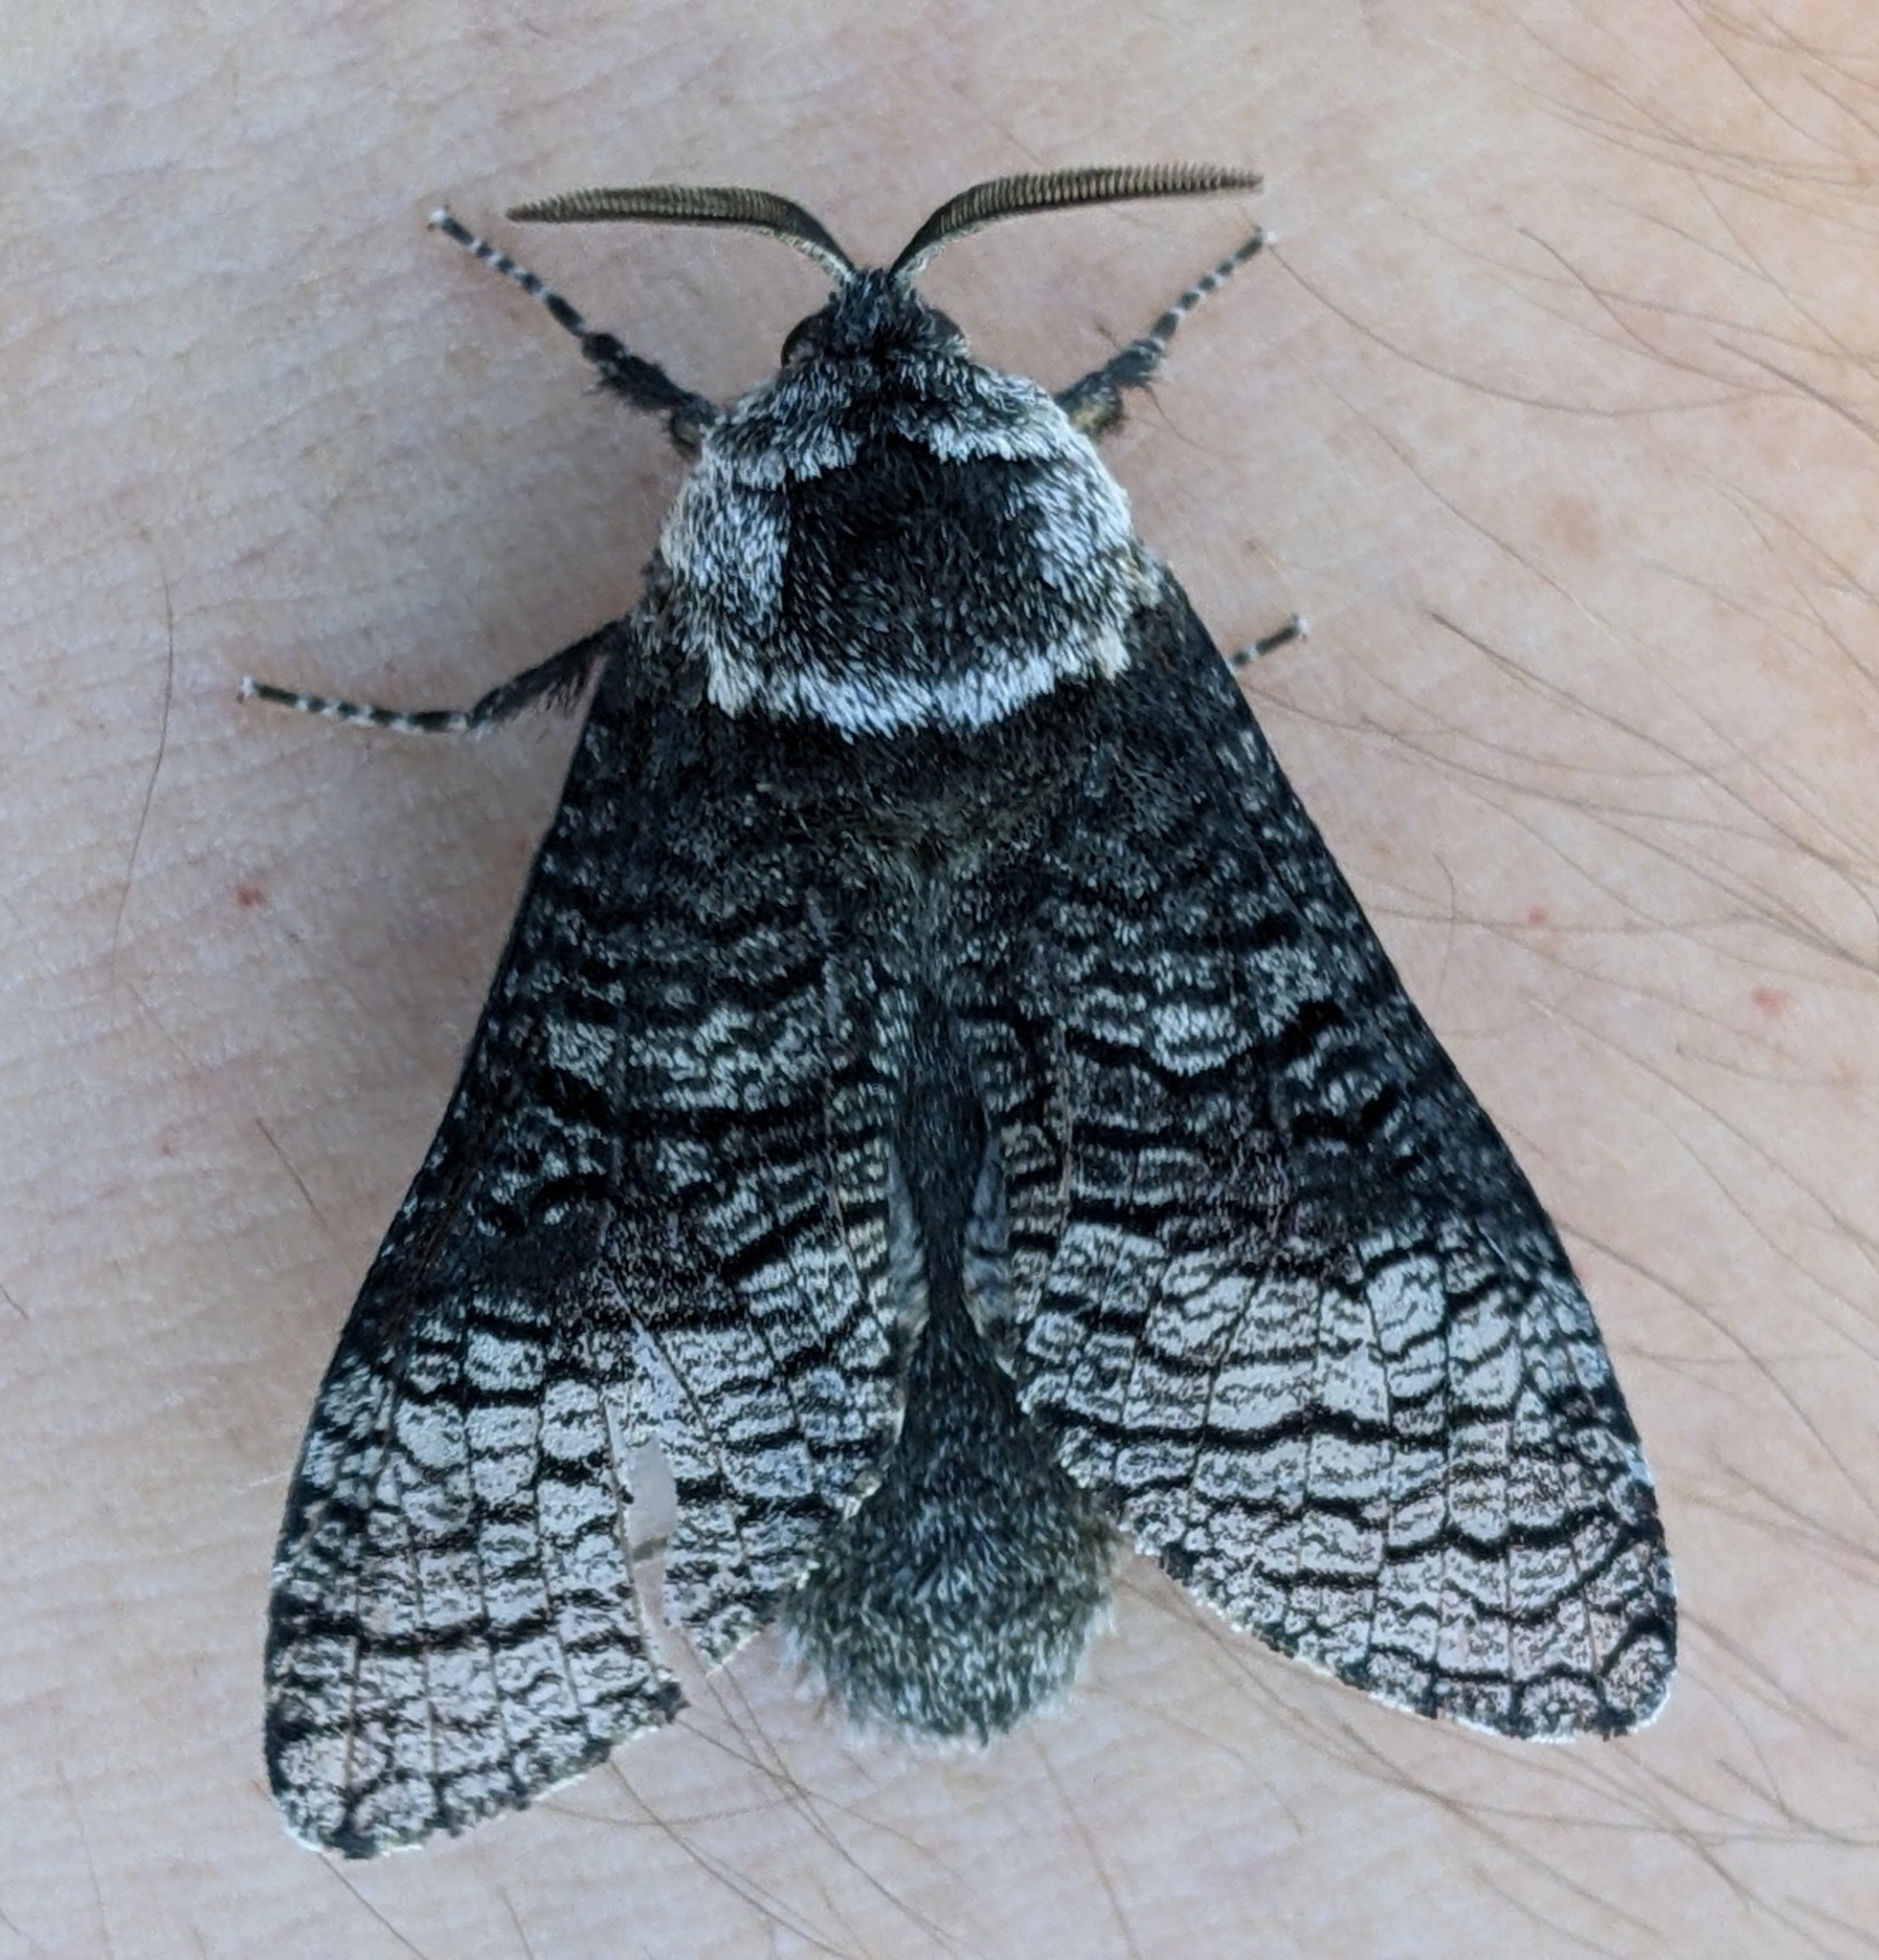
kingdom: Animalia
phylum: Arthropoda
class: Insecta
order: Lepidoptera
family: Cossidae
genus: Acossus
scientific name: Acossus centerensis
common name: Poplar carpenterworm moth
